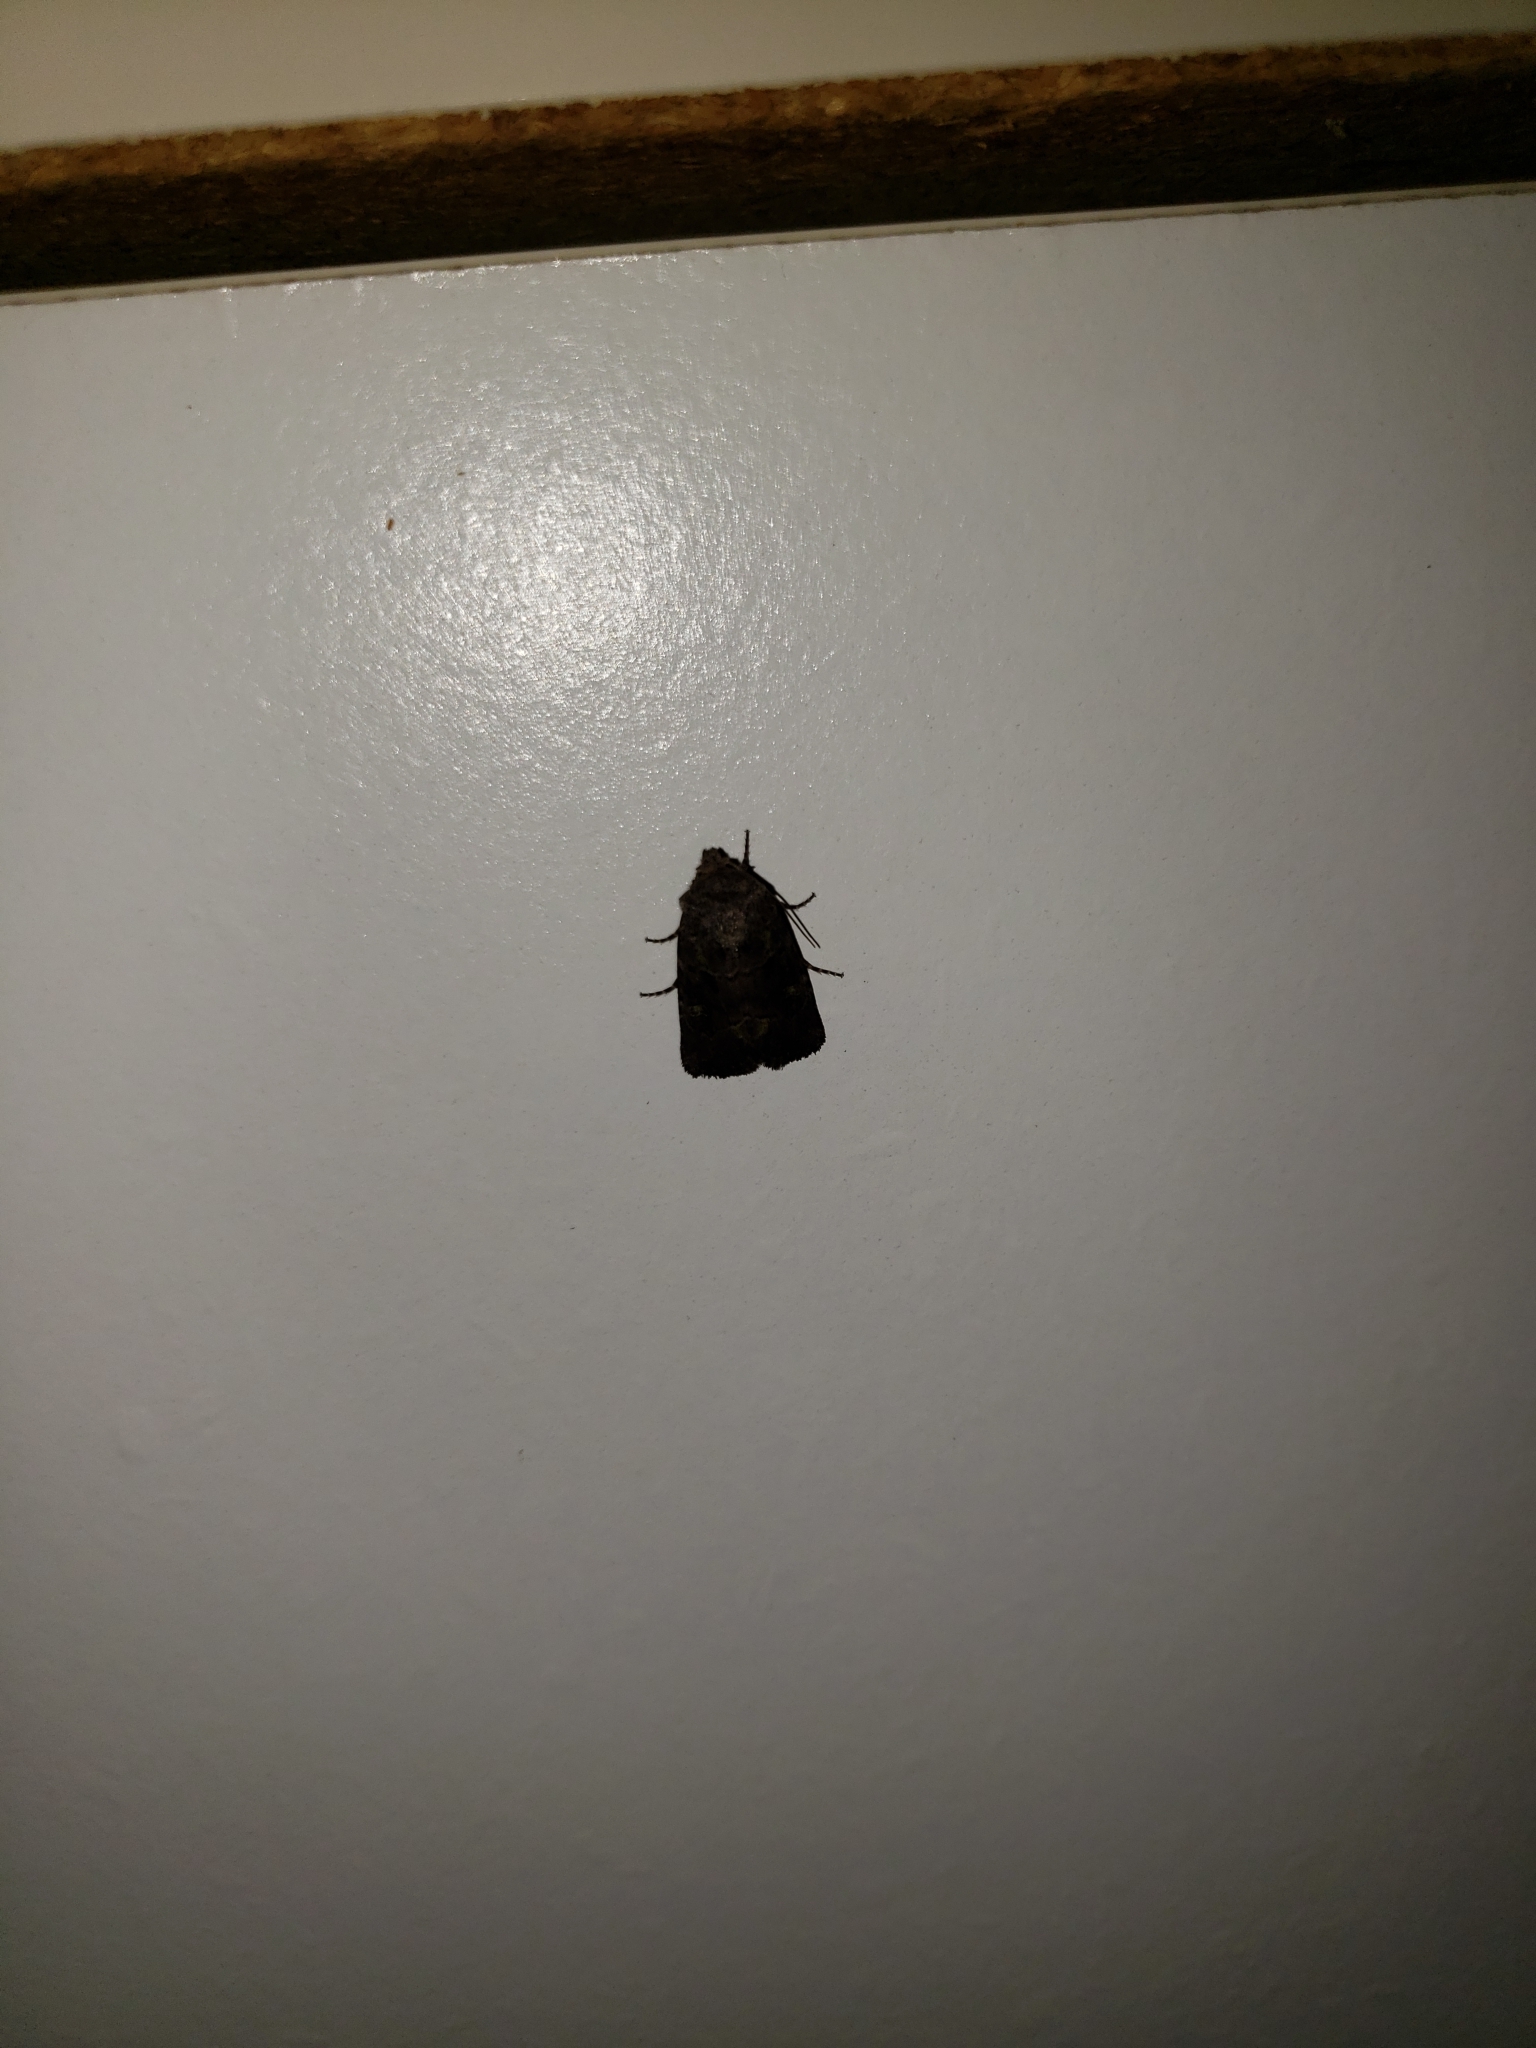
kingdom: Animalia
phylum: Arthropoda
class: Insecta
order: Lepidoptera
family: Noctuidae
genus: Lacinipolia
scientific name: Lacinipolia renigera
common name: Kidney-spotted minor
